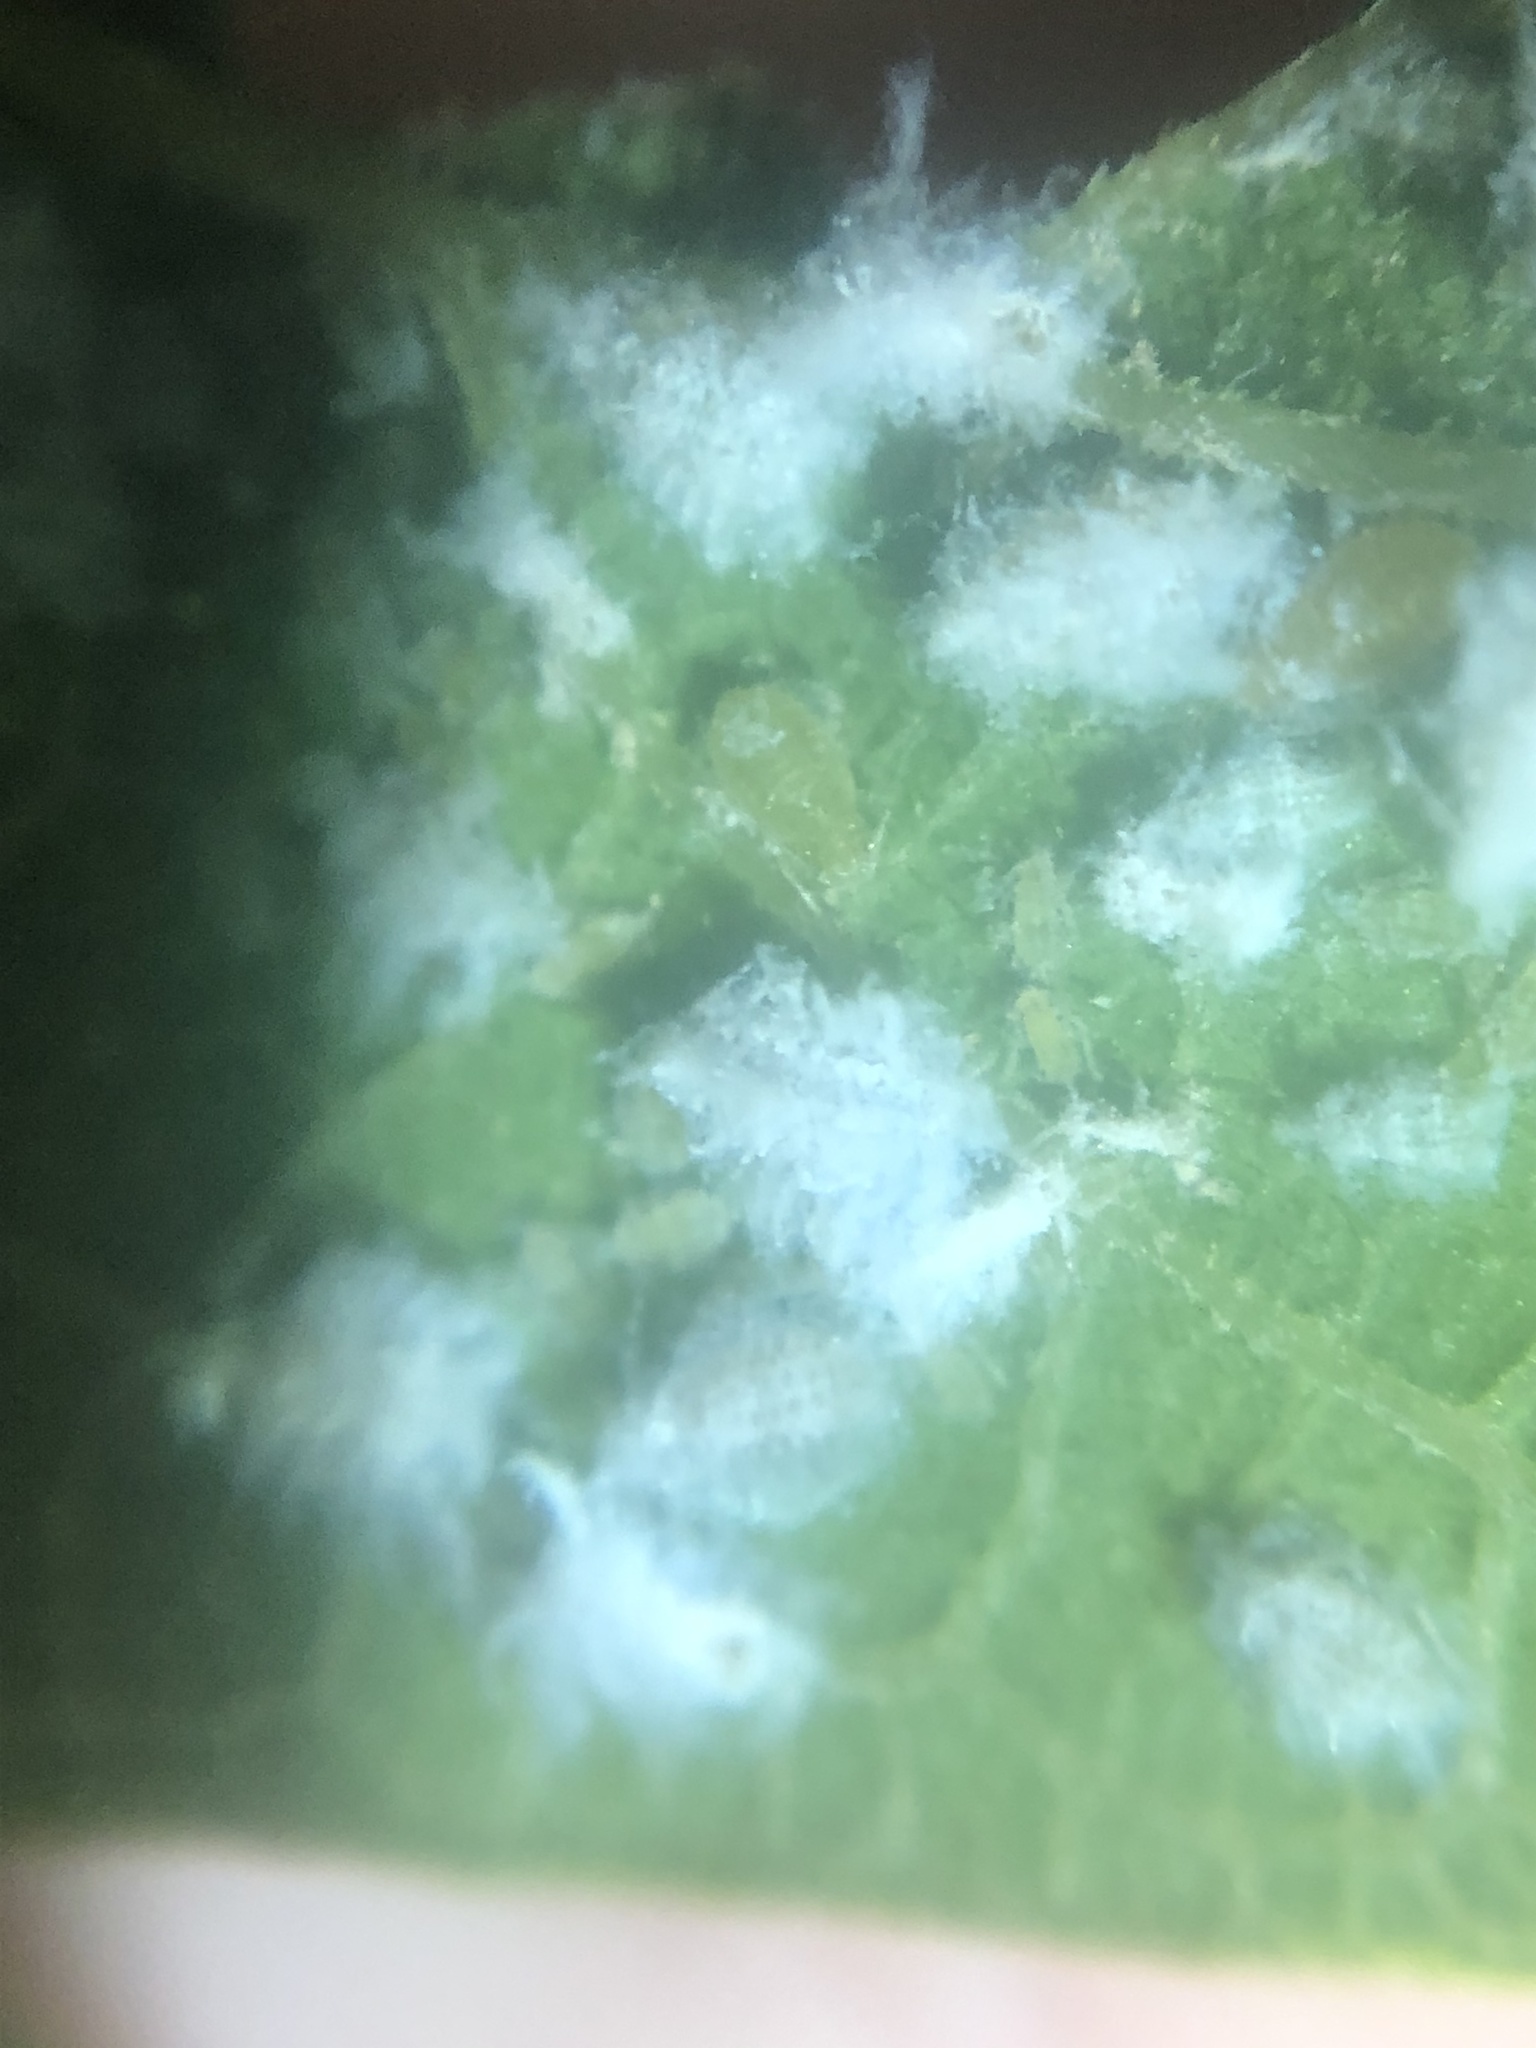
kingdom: Animalia
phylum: Arthropoda
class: Insecta
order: Hemiptera
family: Aphididae
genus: Shivaphis
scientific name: Shivaphis celti
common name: Asian wooly hackberry aphid
